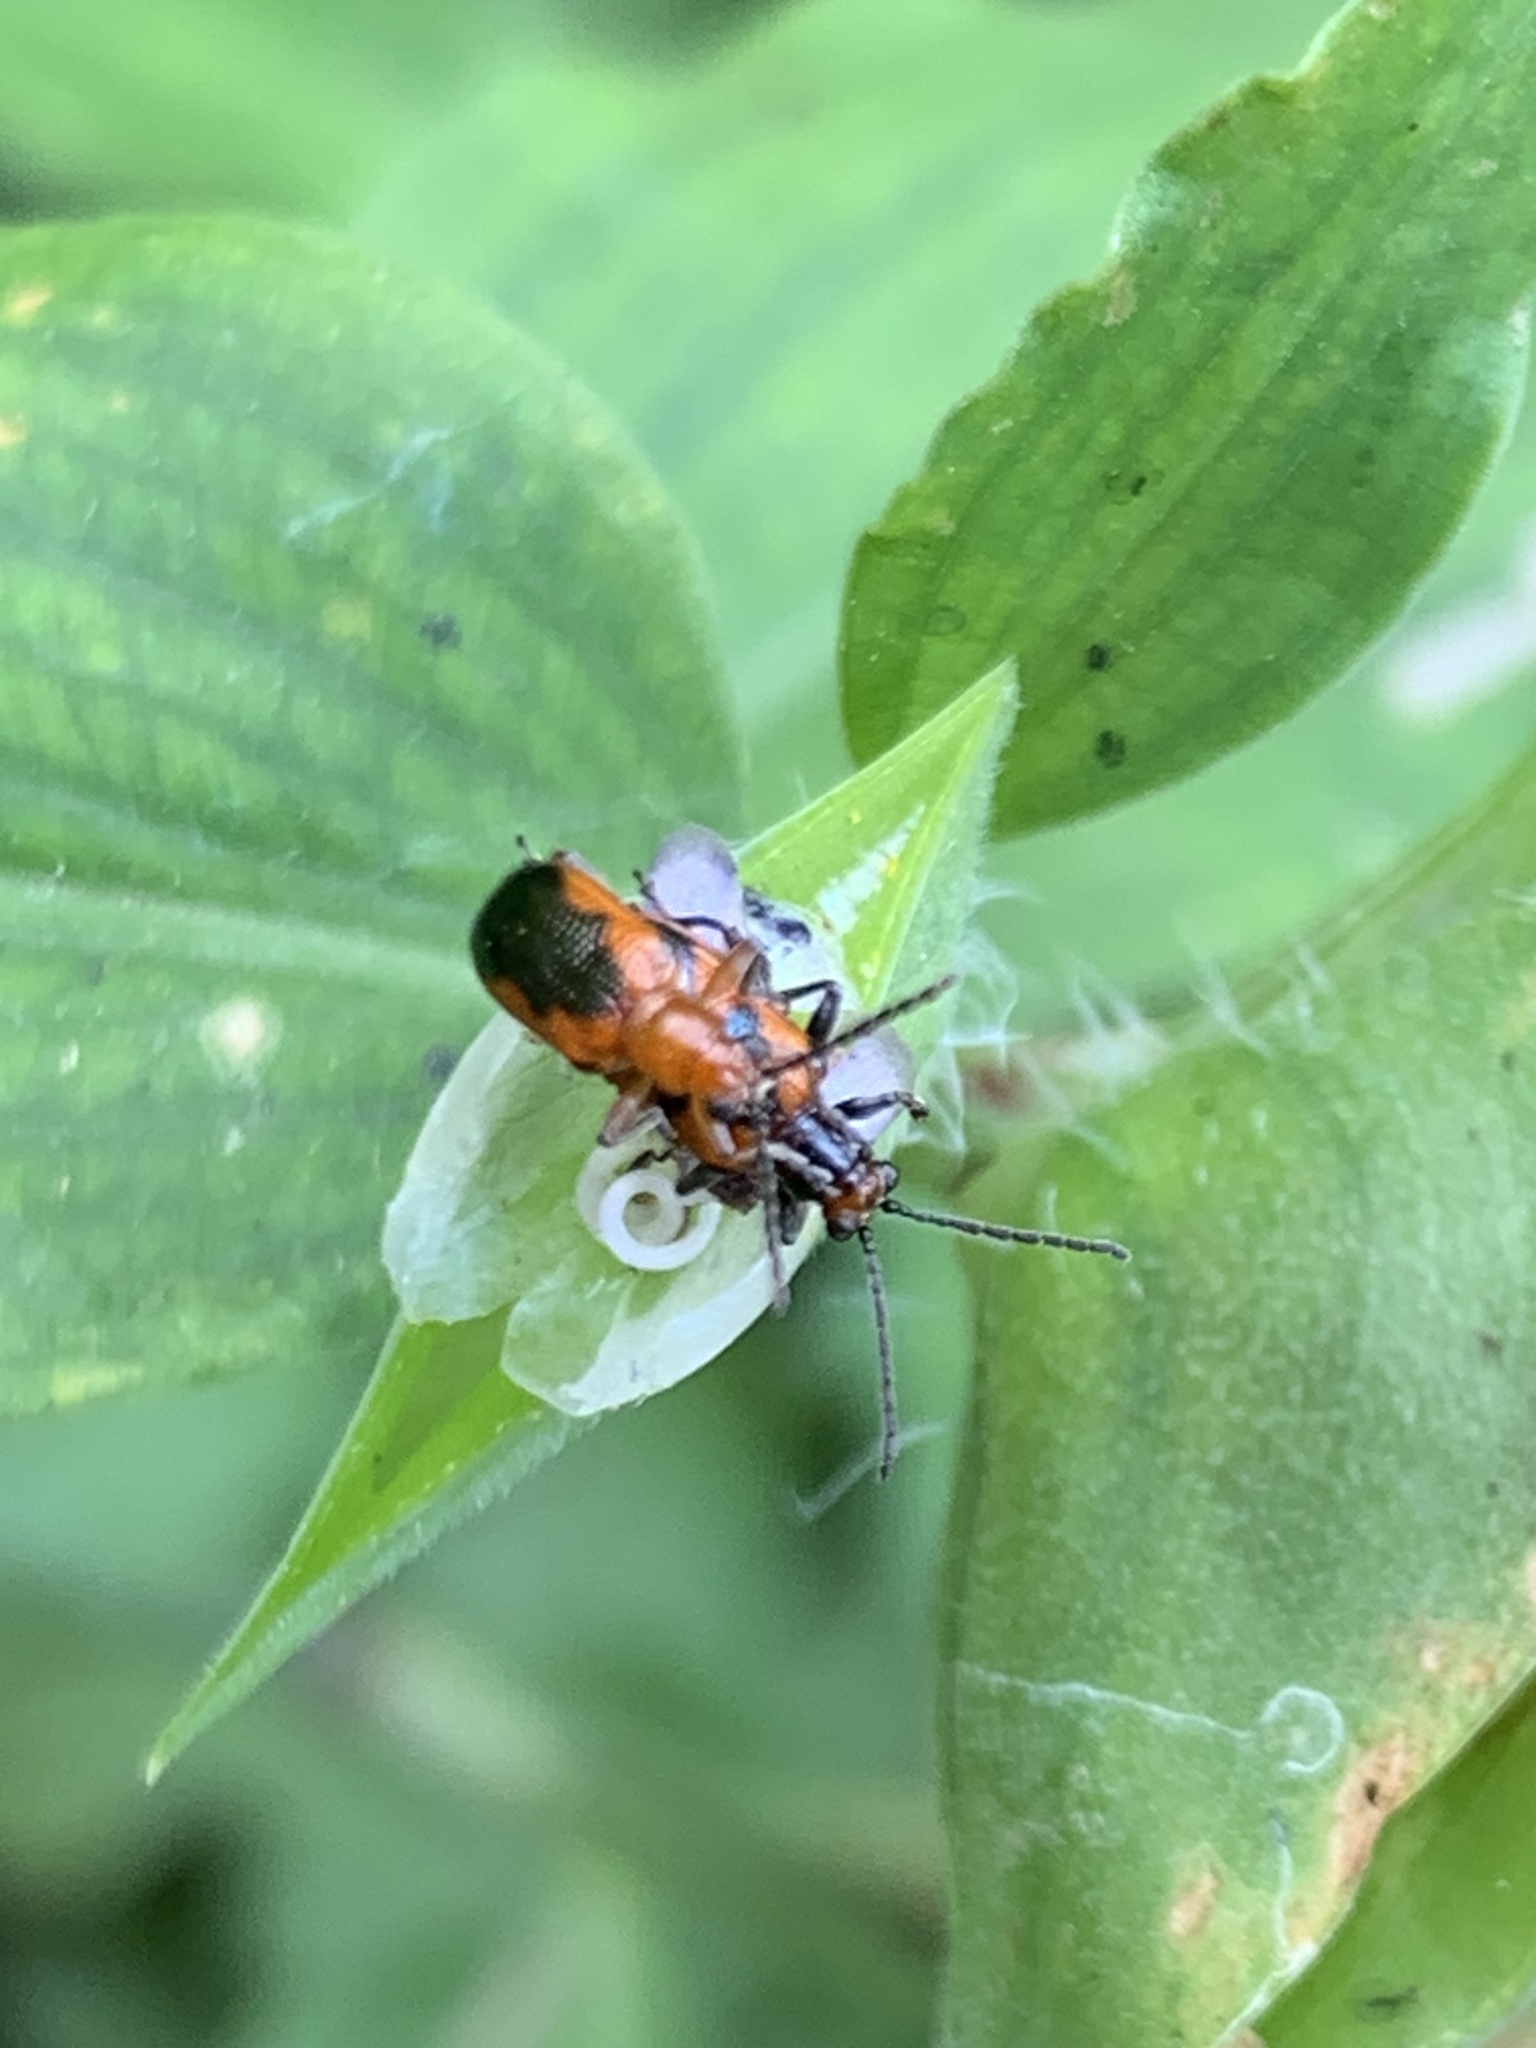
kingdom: Animalia
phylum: Arthropoda
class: Insecta
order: Coleoptera
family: Chrysomelidae
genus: Neolema
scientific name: Neolema dorsalis
